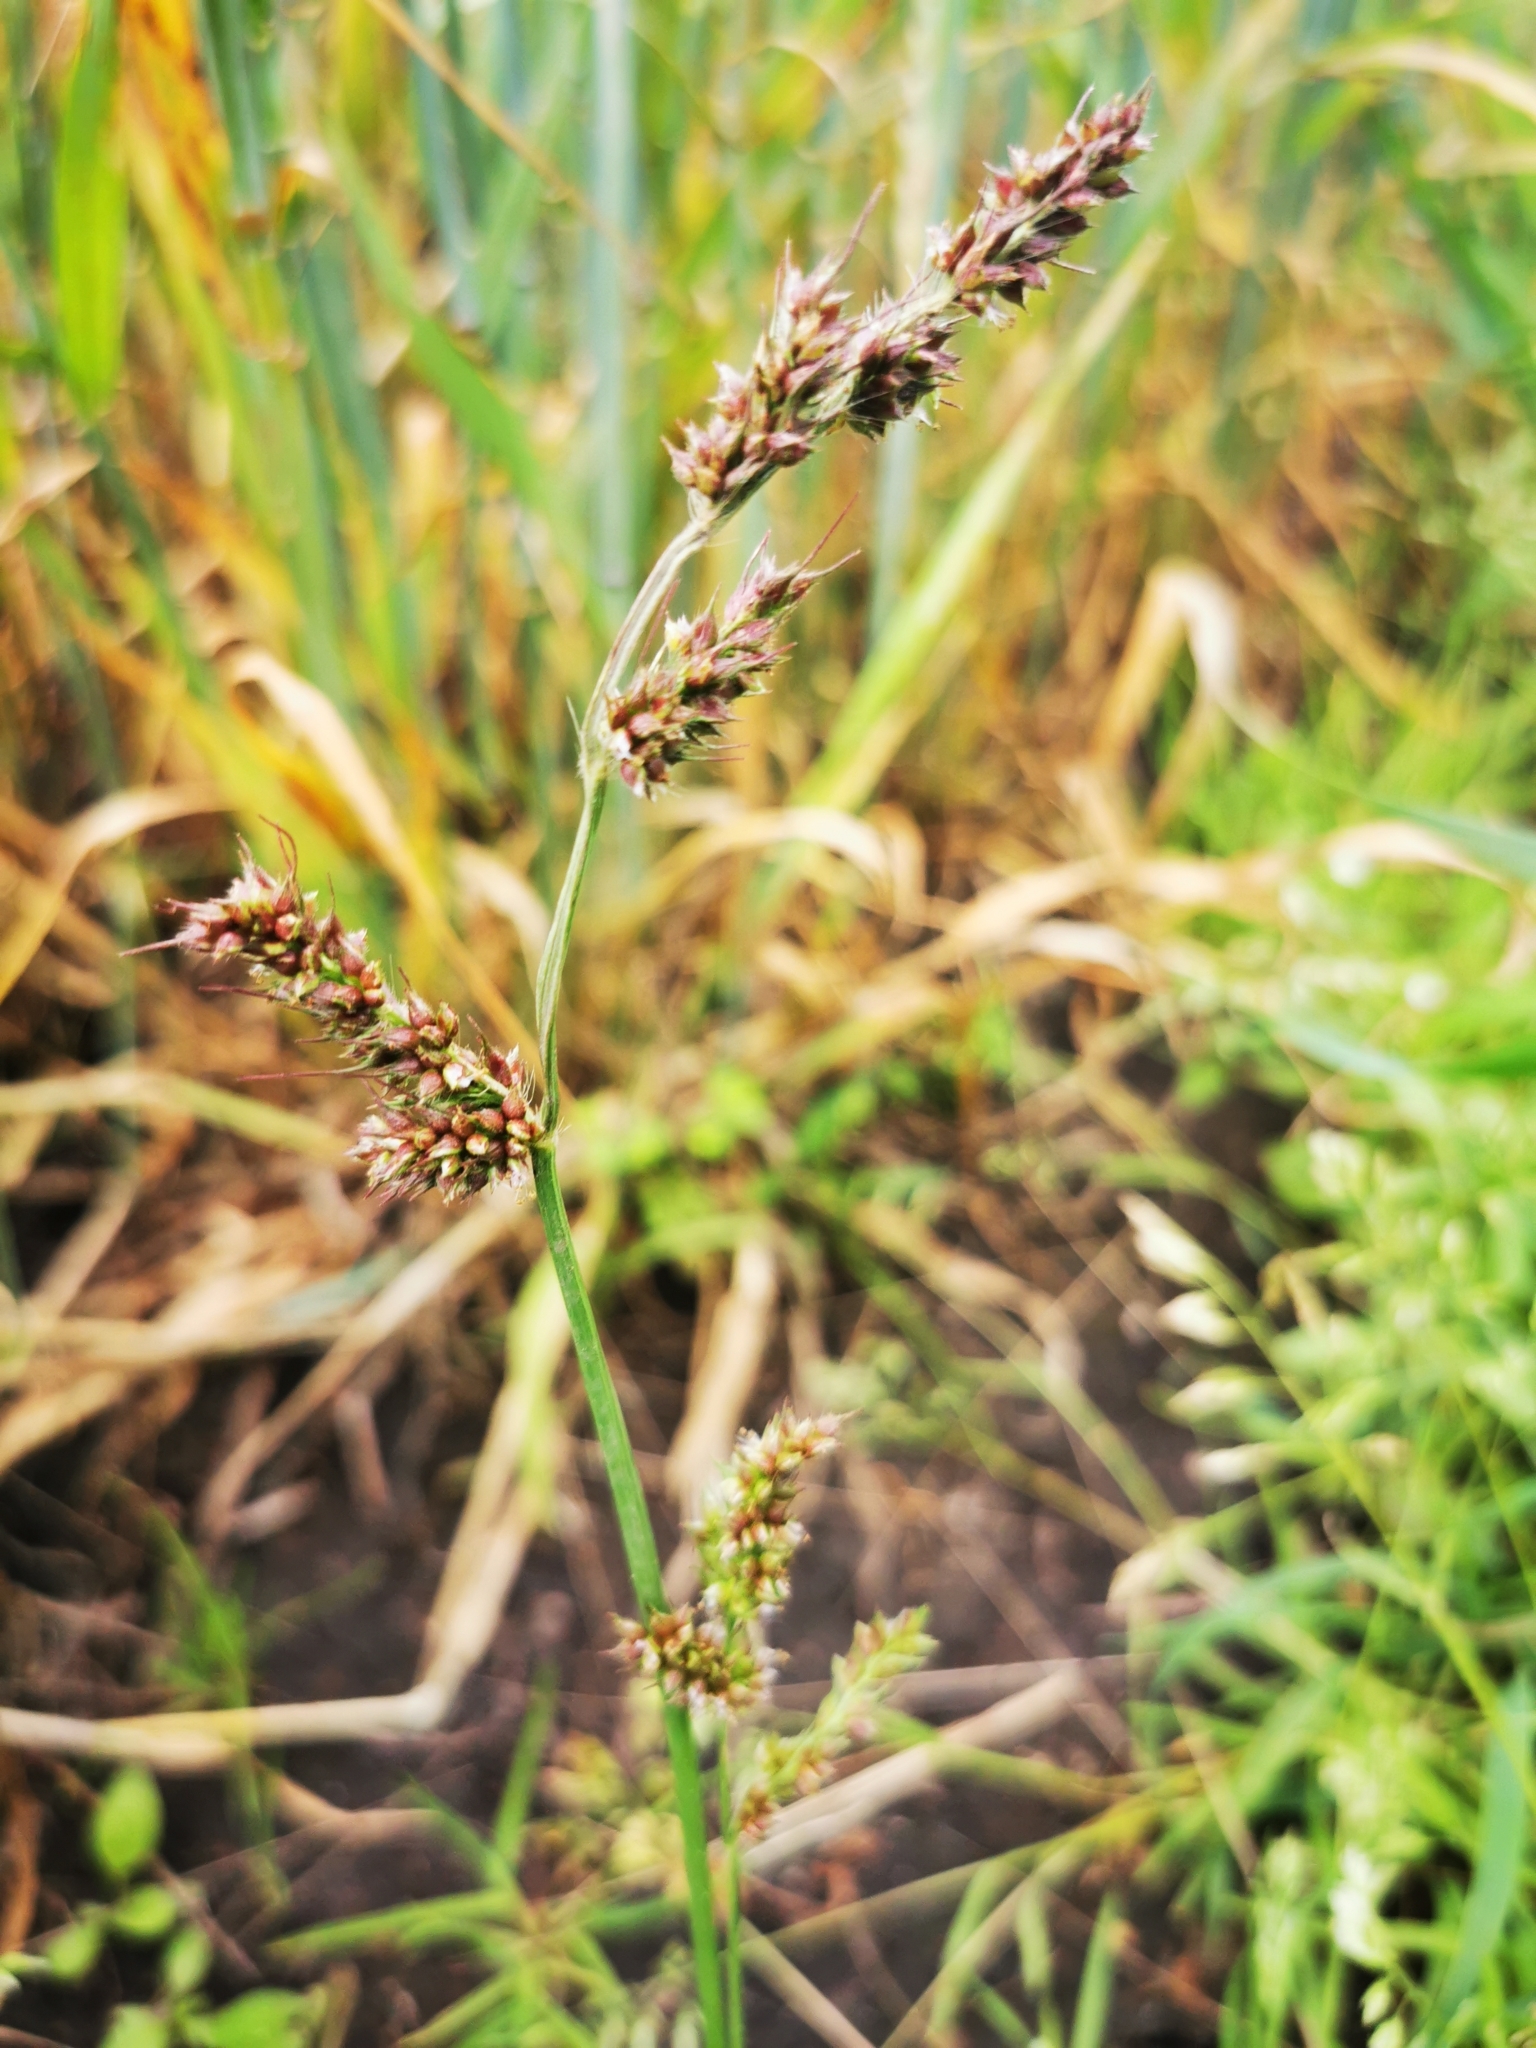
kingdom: Plantae
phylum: Tracheophyta
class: Liliopsida
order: Poales
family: Poaceae
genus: Echinochloa
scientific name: Echinochloa crus-galli
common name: Cockspur
